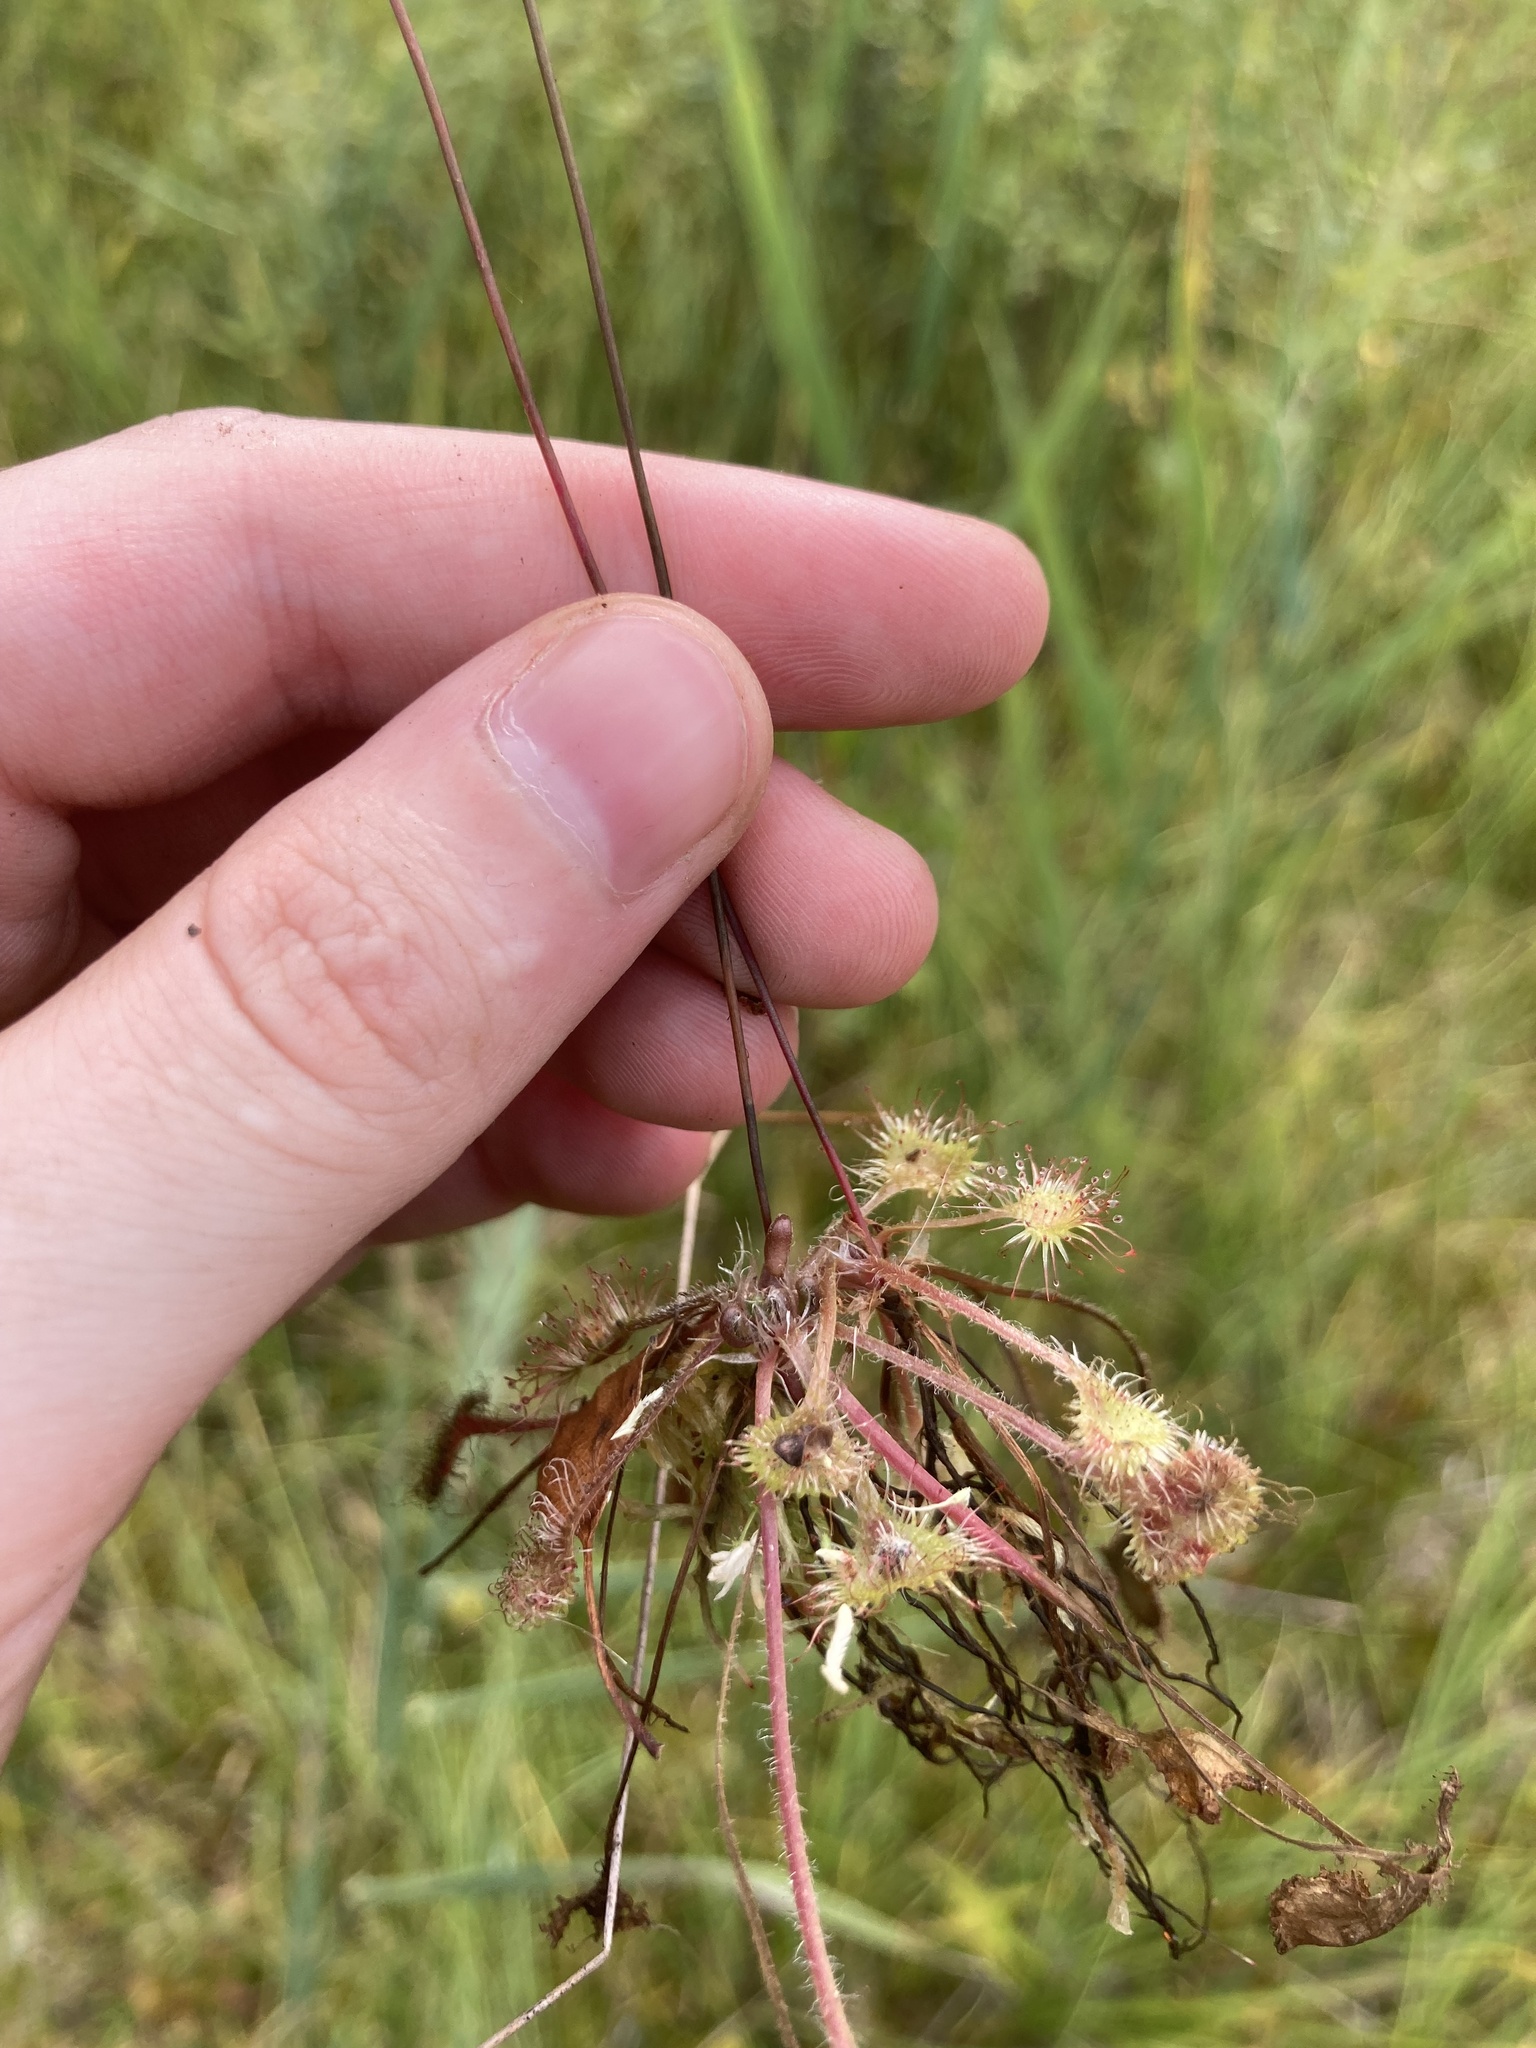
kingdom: Plantae
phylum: Tracheophyta
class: Magnoliopsida
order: Caryophyllales
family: Droseraceae
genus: Drosera
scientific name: Drosera rotundifolia
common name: Round-leaved sundew
